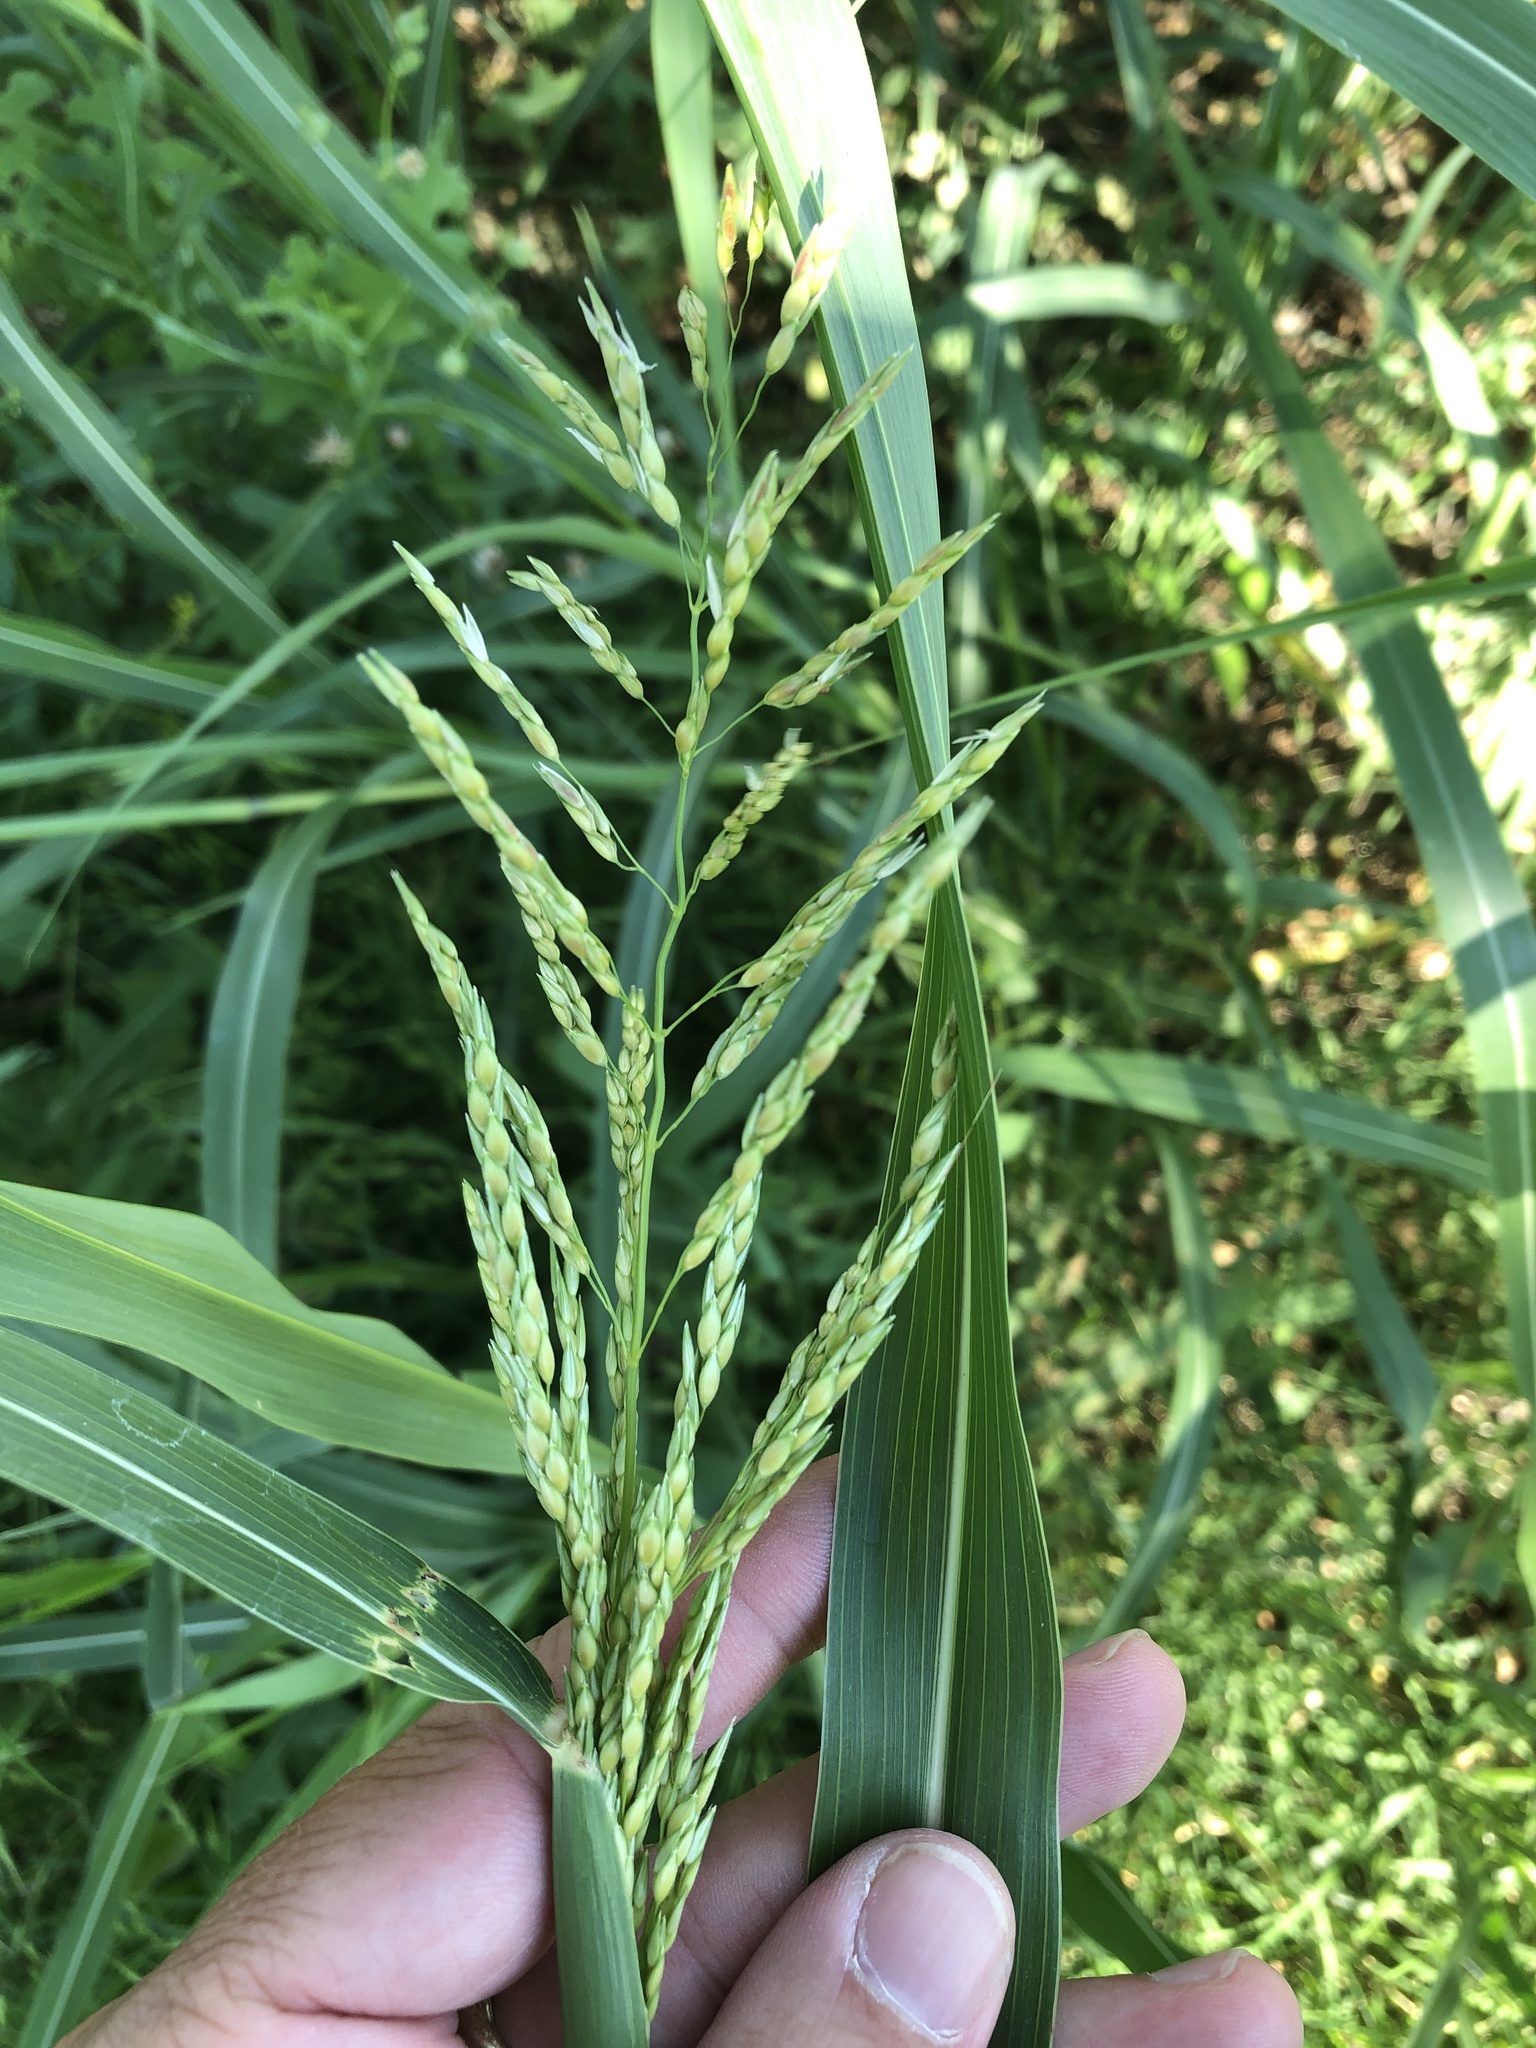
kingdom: Plantae
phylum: Tracheophyta
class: Liliopsida
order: Poales
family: Poaceae
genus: Sorghum
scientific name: Sorghum halepense
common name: Johnson-grass
